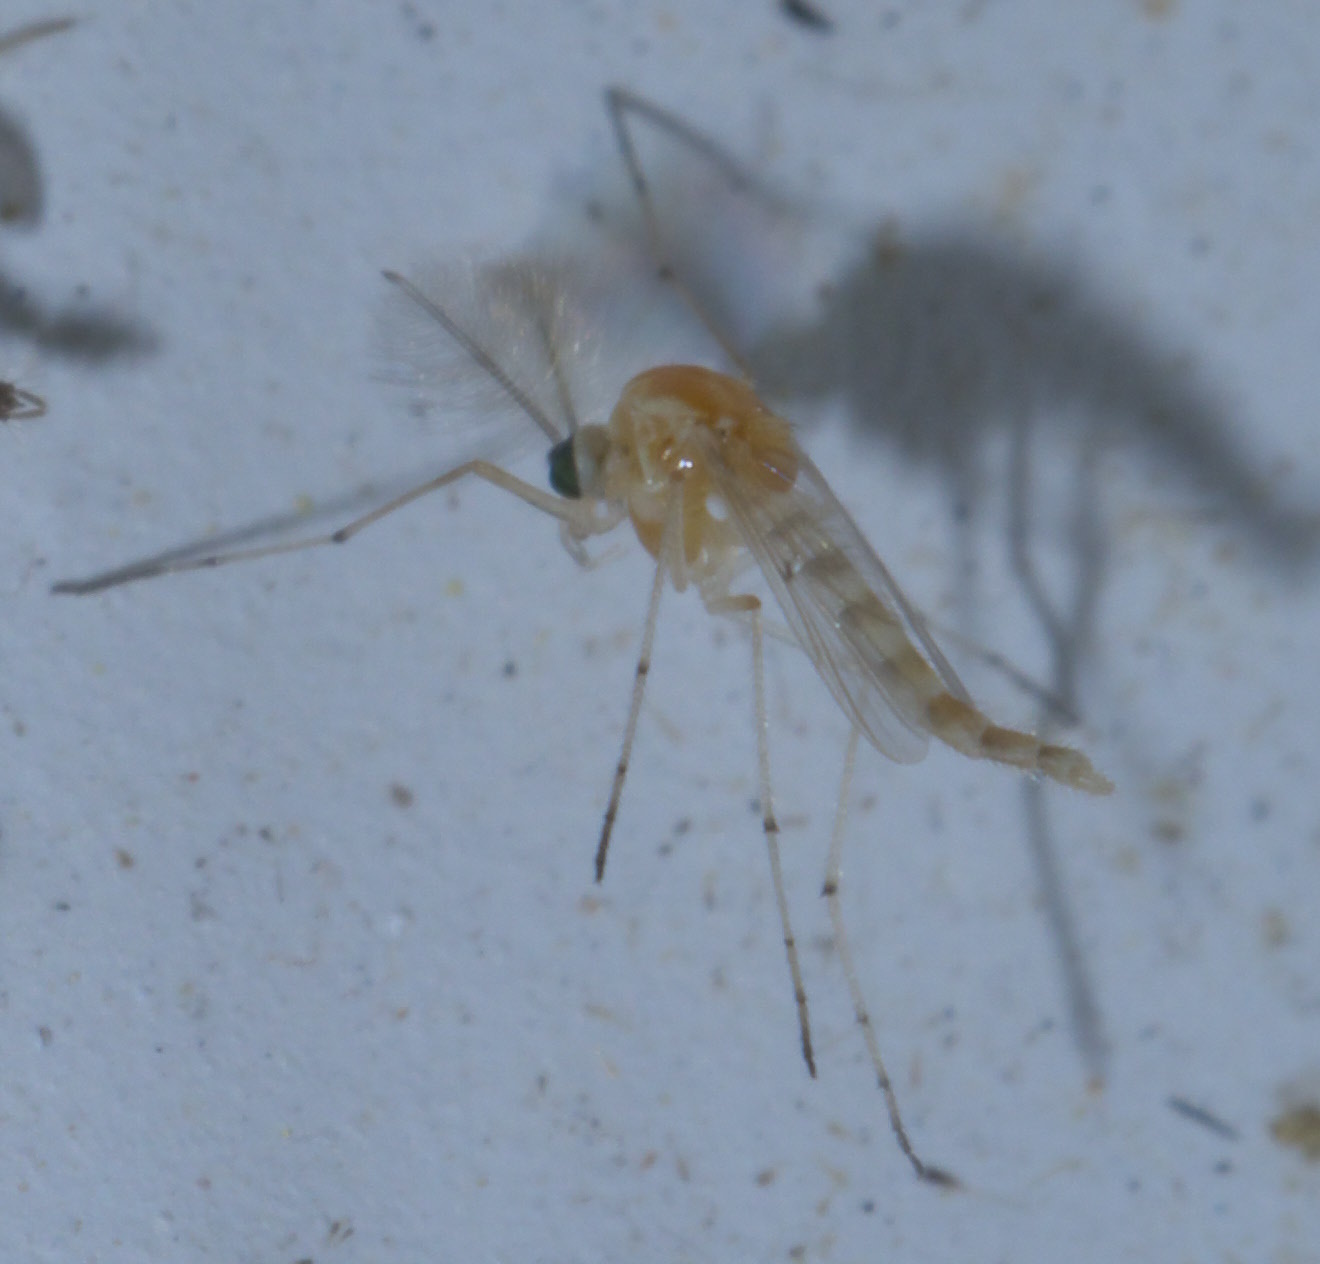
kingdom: Animalia
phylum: Arthropoda
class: Insecta
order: Diptera
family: Chironomidae
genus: Procladius
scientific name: Procladius bellus
